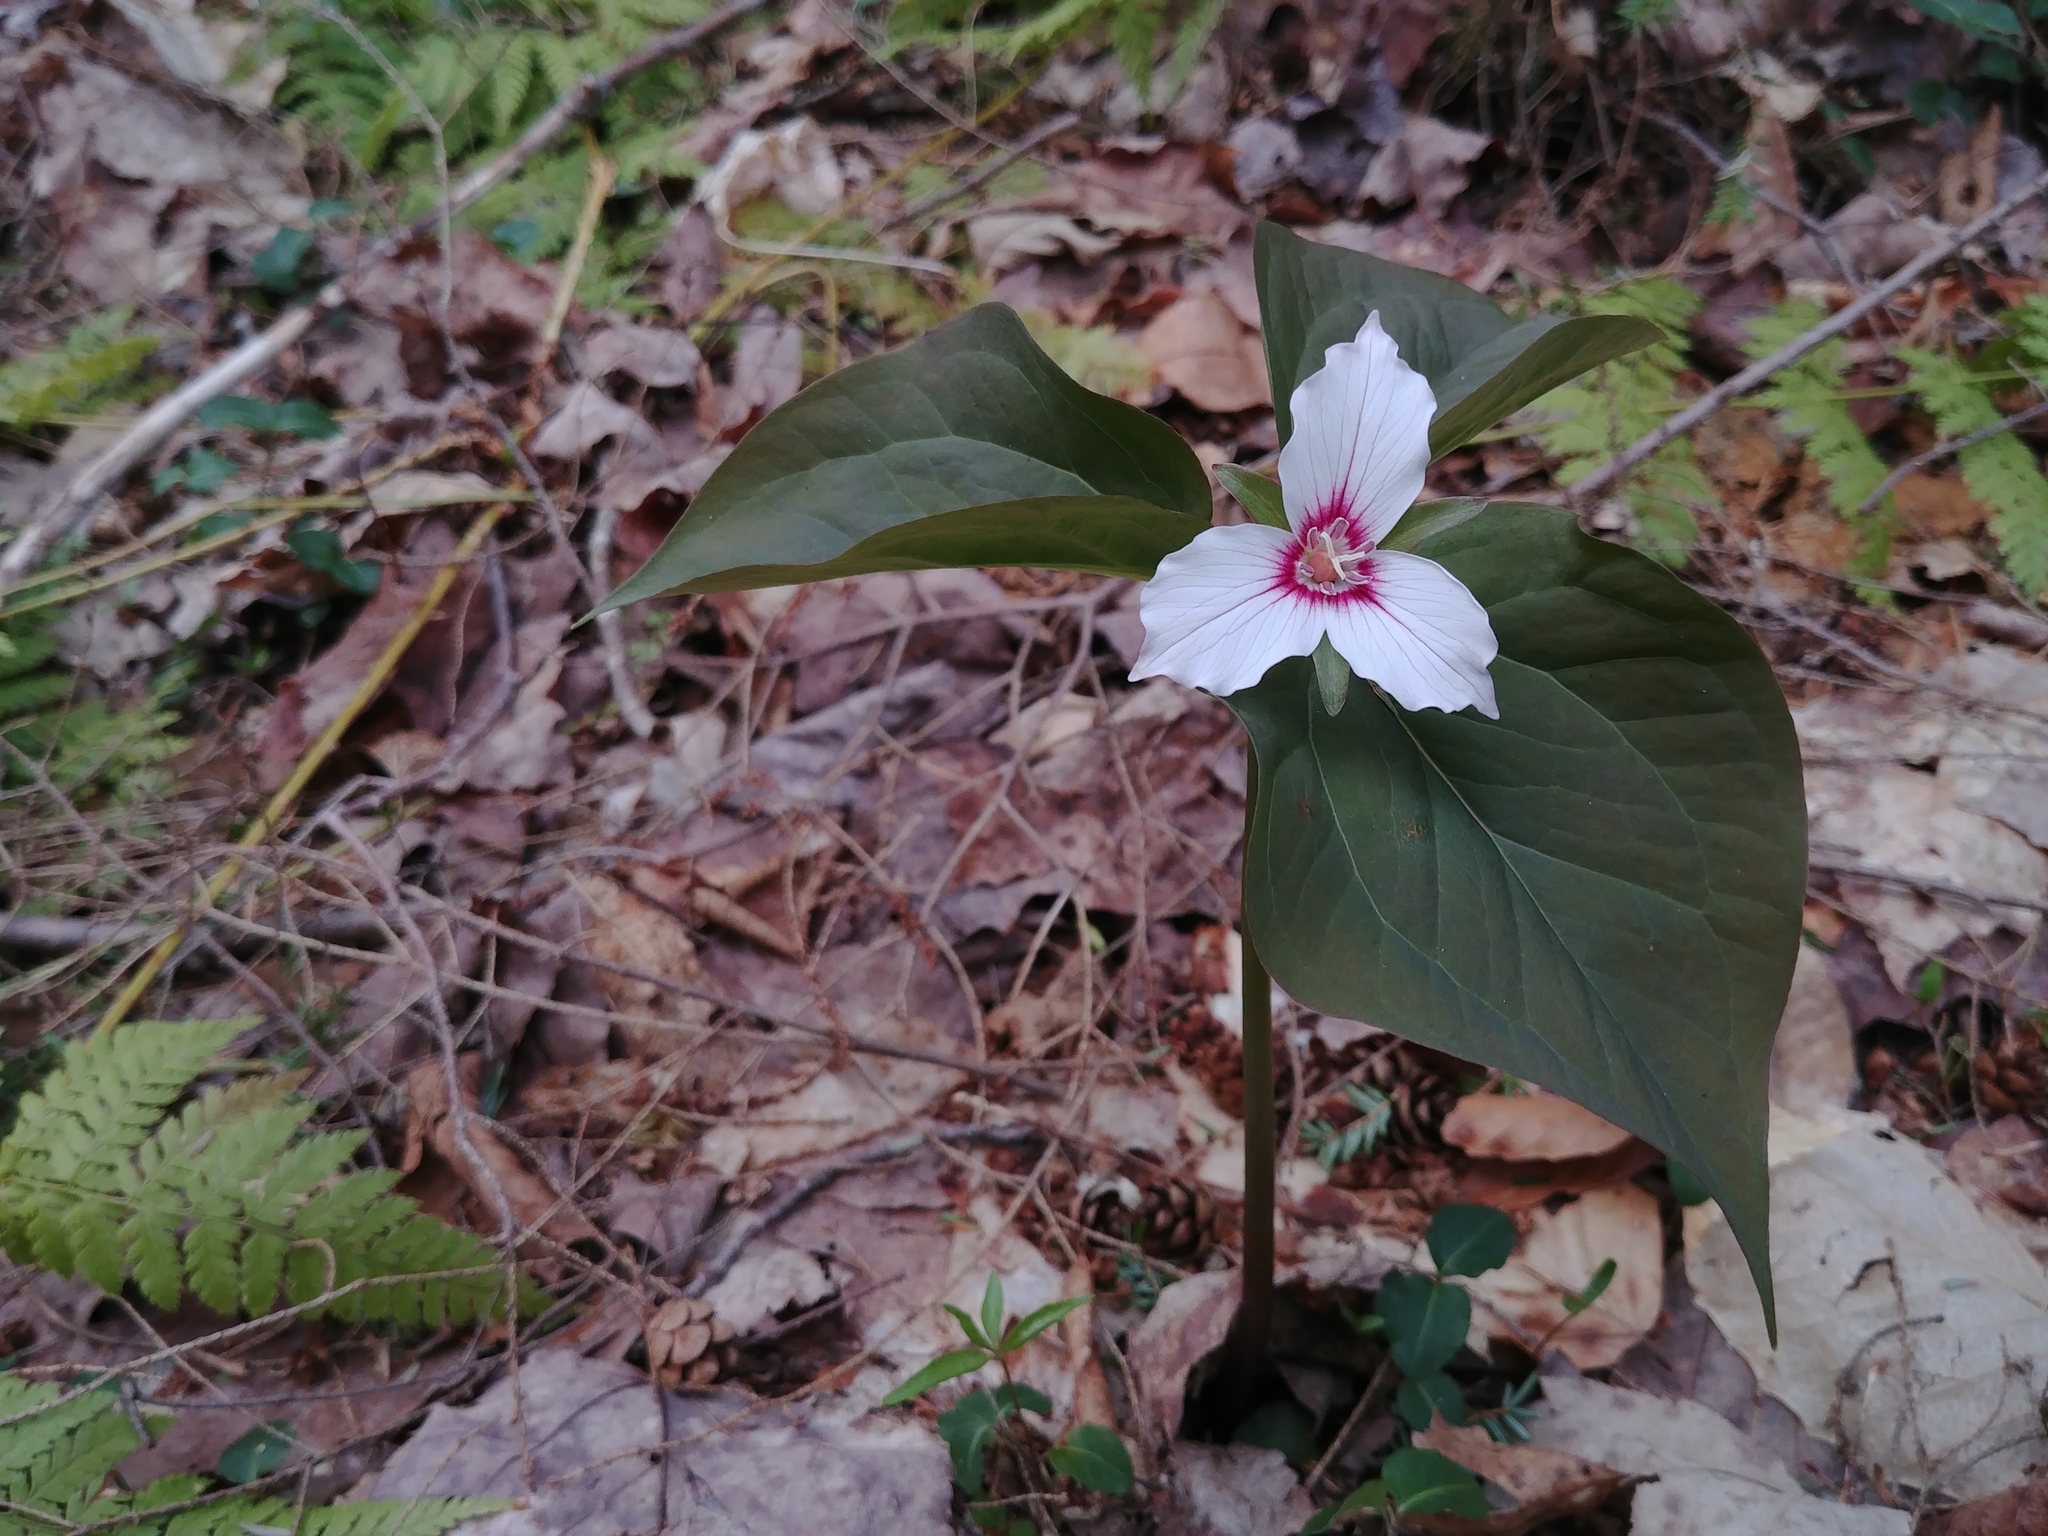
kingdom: Plantae
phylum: Tracheophyta
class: Liliopsida
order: Liliales
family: Melanthiaceae
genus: Trillium
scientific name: Trillium undulatum
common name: Paint trillium
